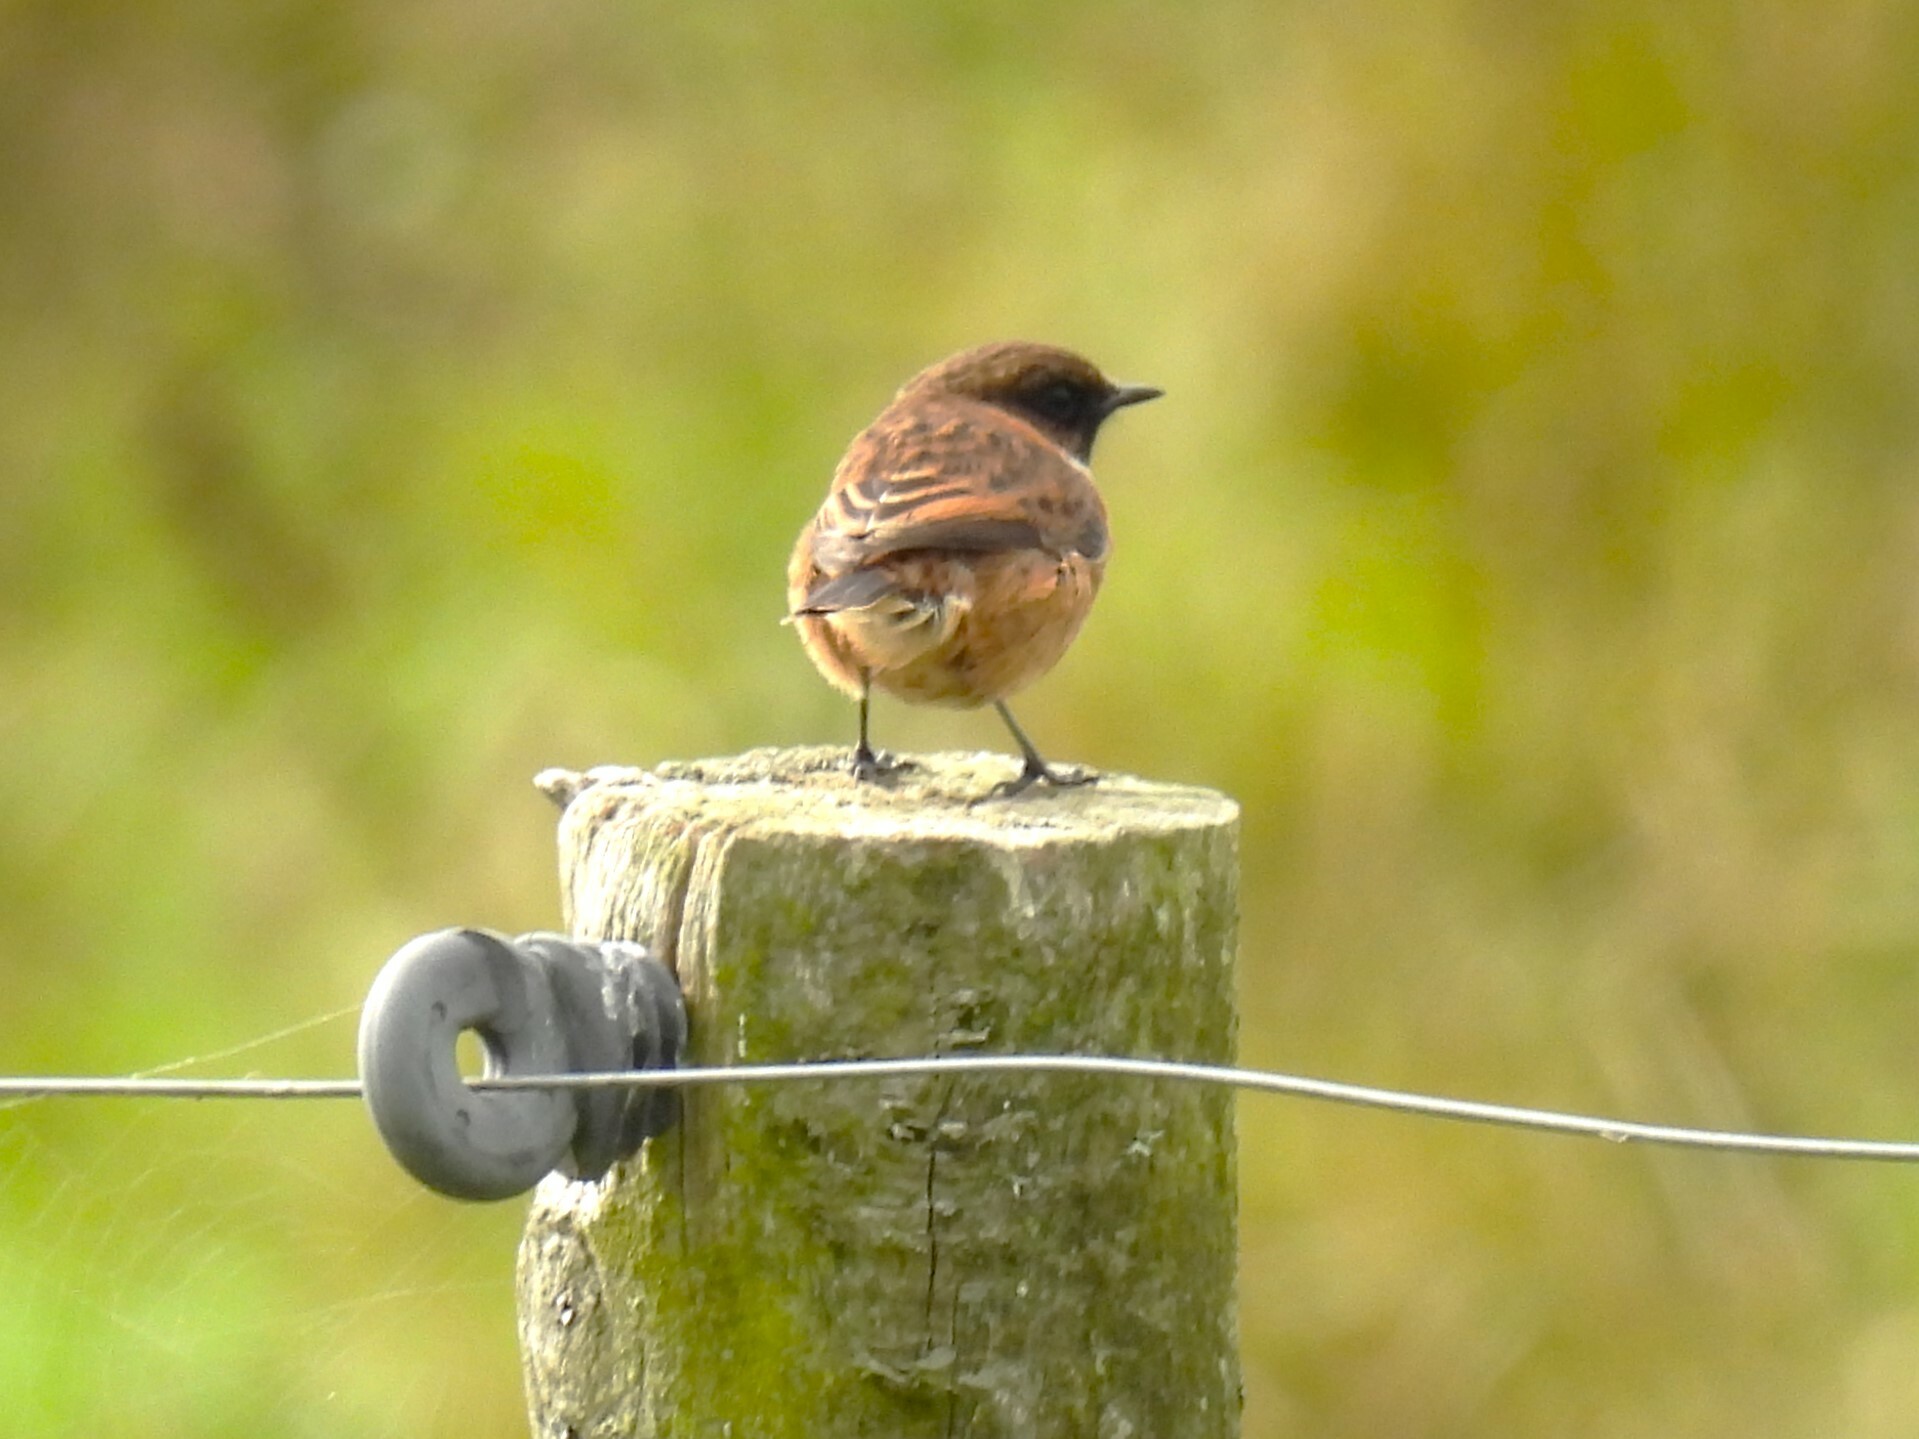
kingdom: Animalia
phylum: Chordata
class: Aves
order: Passeriformes
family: Muscicapidae
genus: Saxicola
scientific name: Saxicola rubicola
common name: European stonechat
